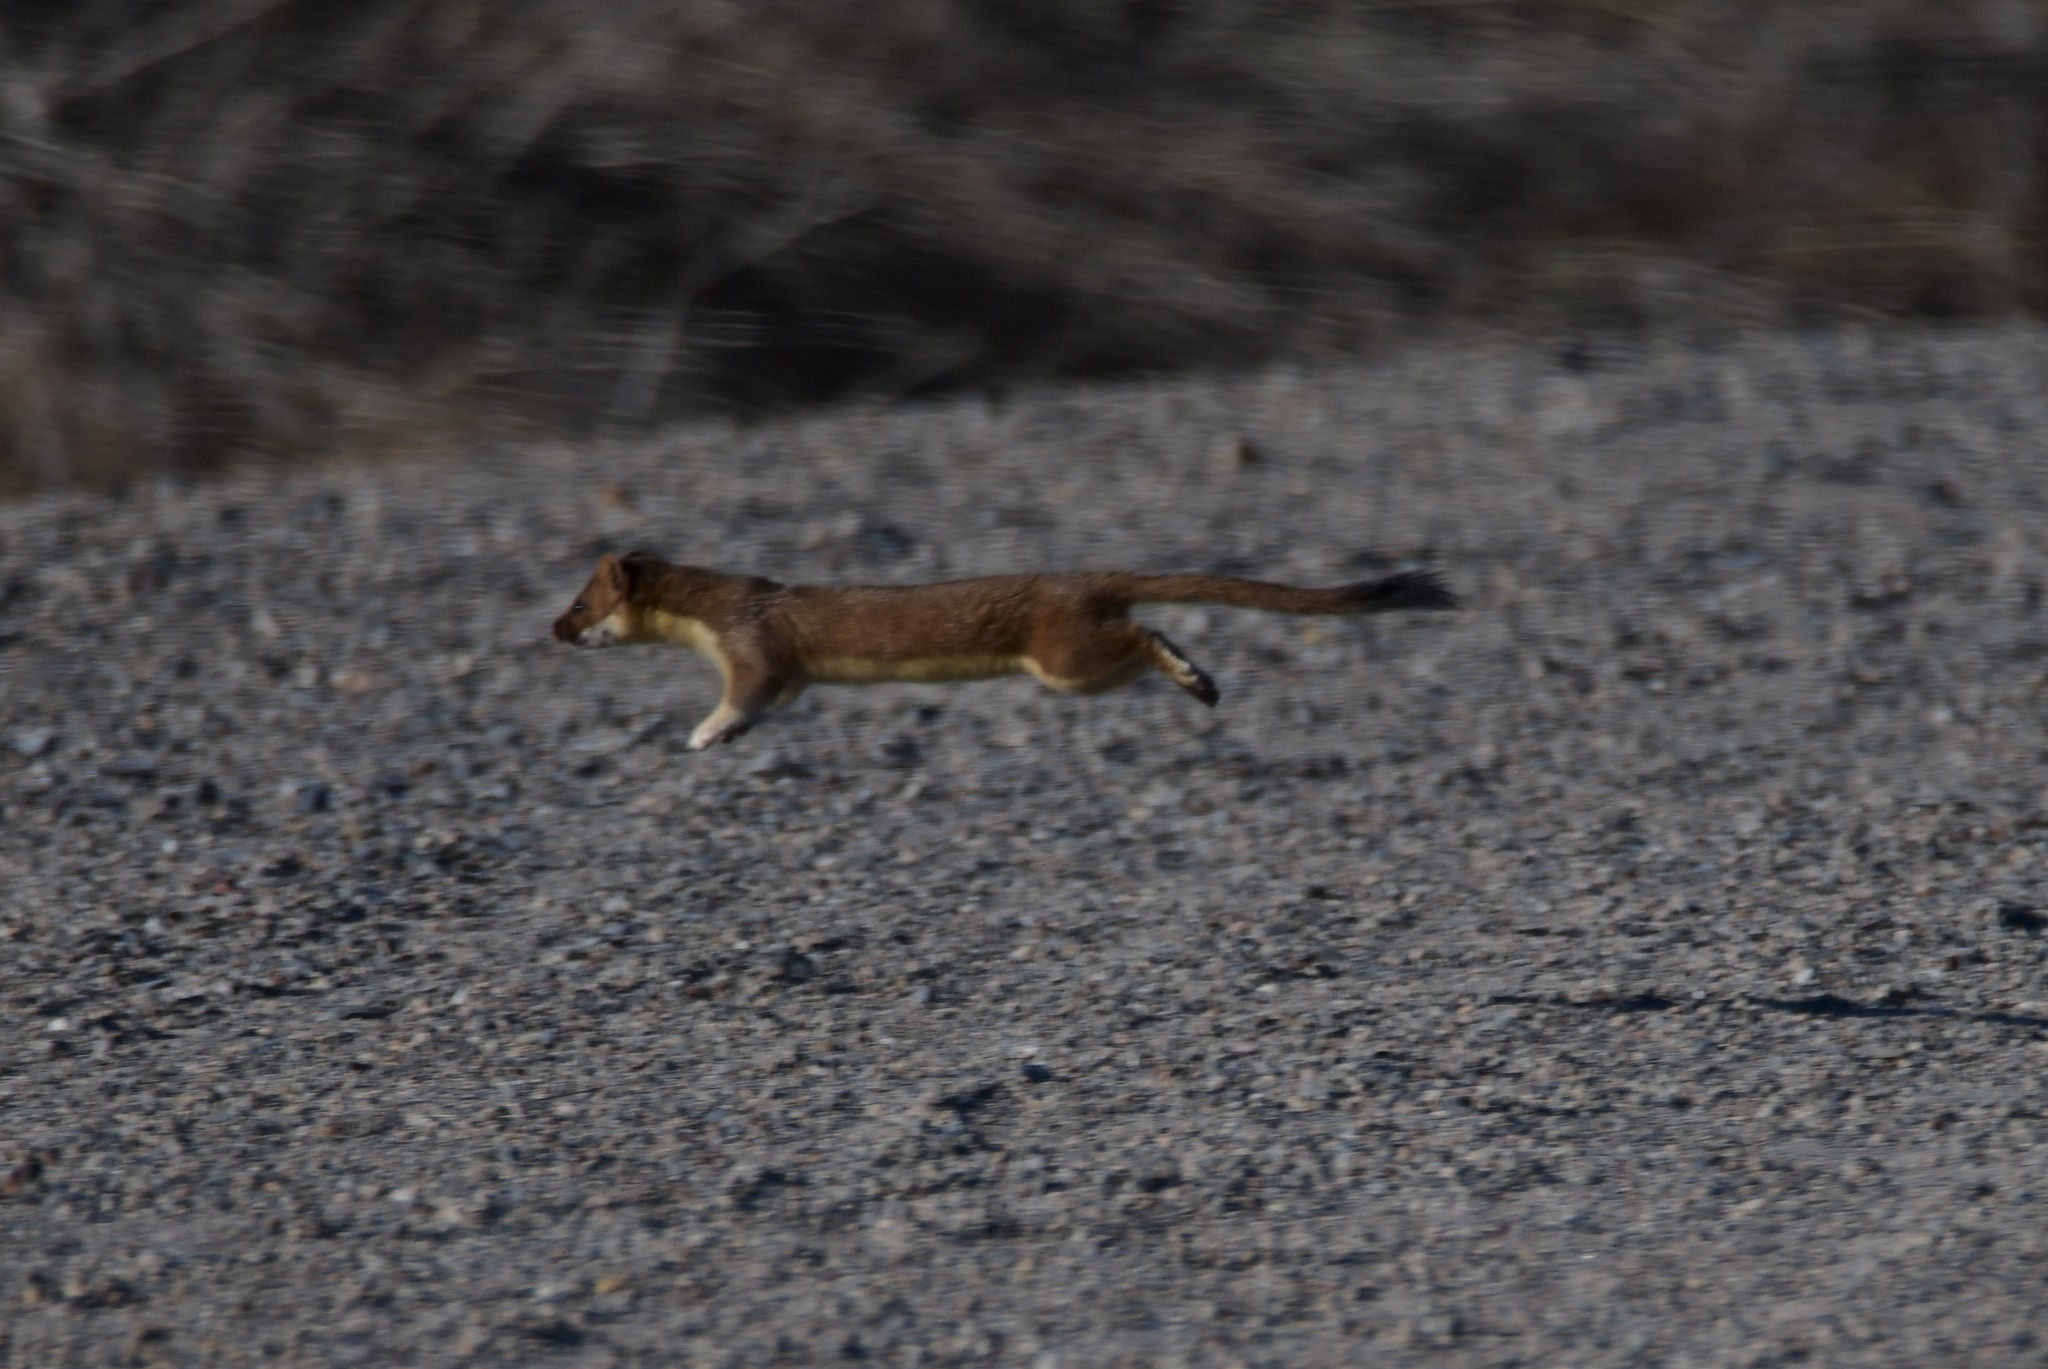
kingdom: Animalia
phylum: Chordata
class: Mammalia
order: Carnivora
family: Mustelidae
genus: Mustela
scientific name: Mustela
